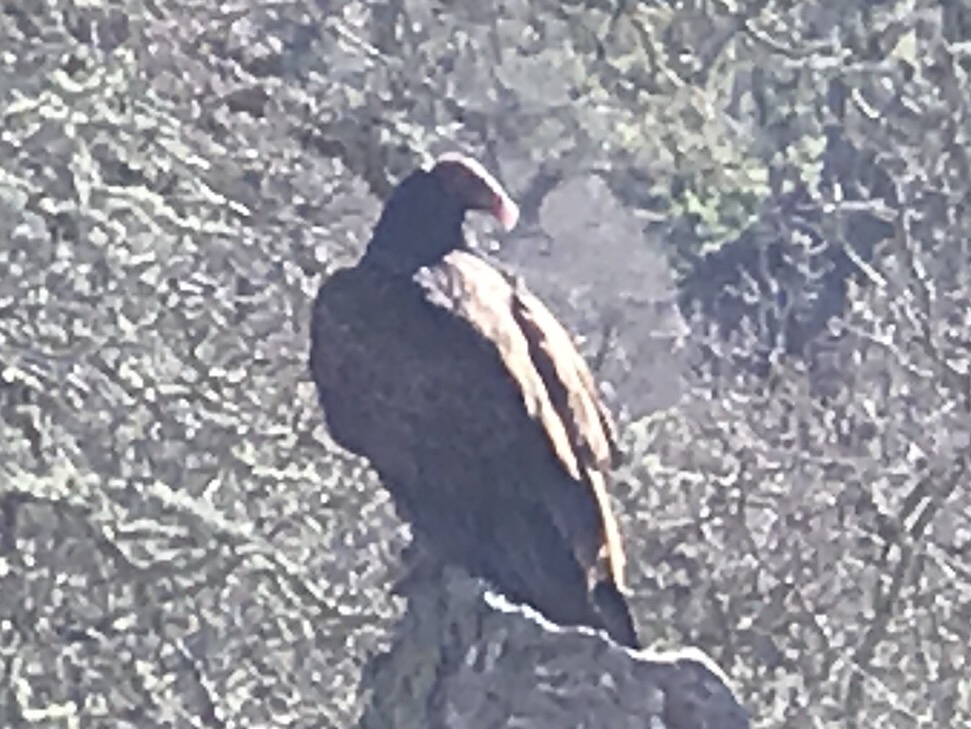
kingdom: Animalia
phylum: Chordata
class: Aves
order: Accipitriformes
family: Cathartidae
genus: Cathartes
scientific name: Cathartes aura
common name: Turkey vulture
